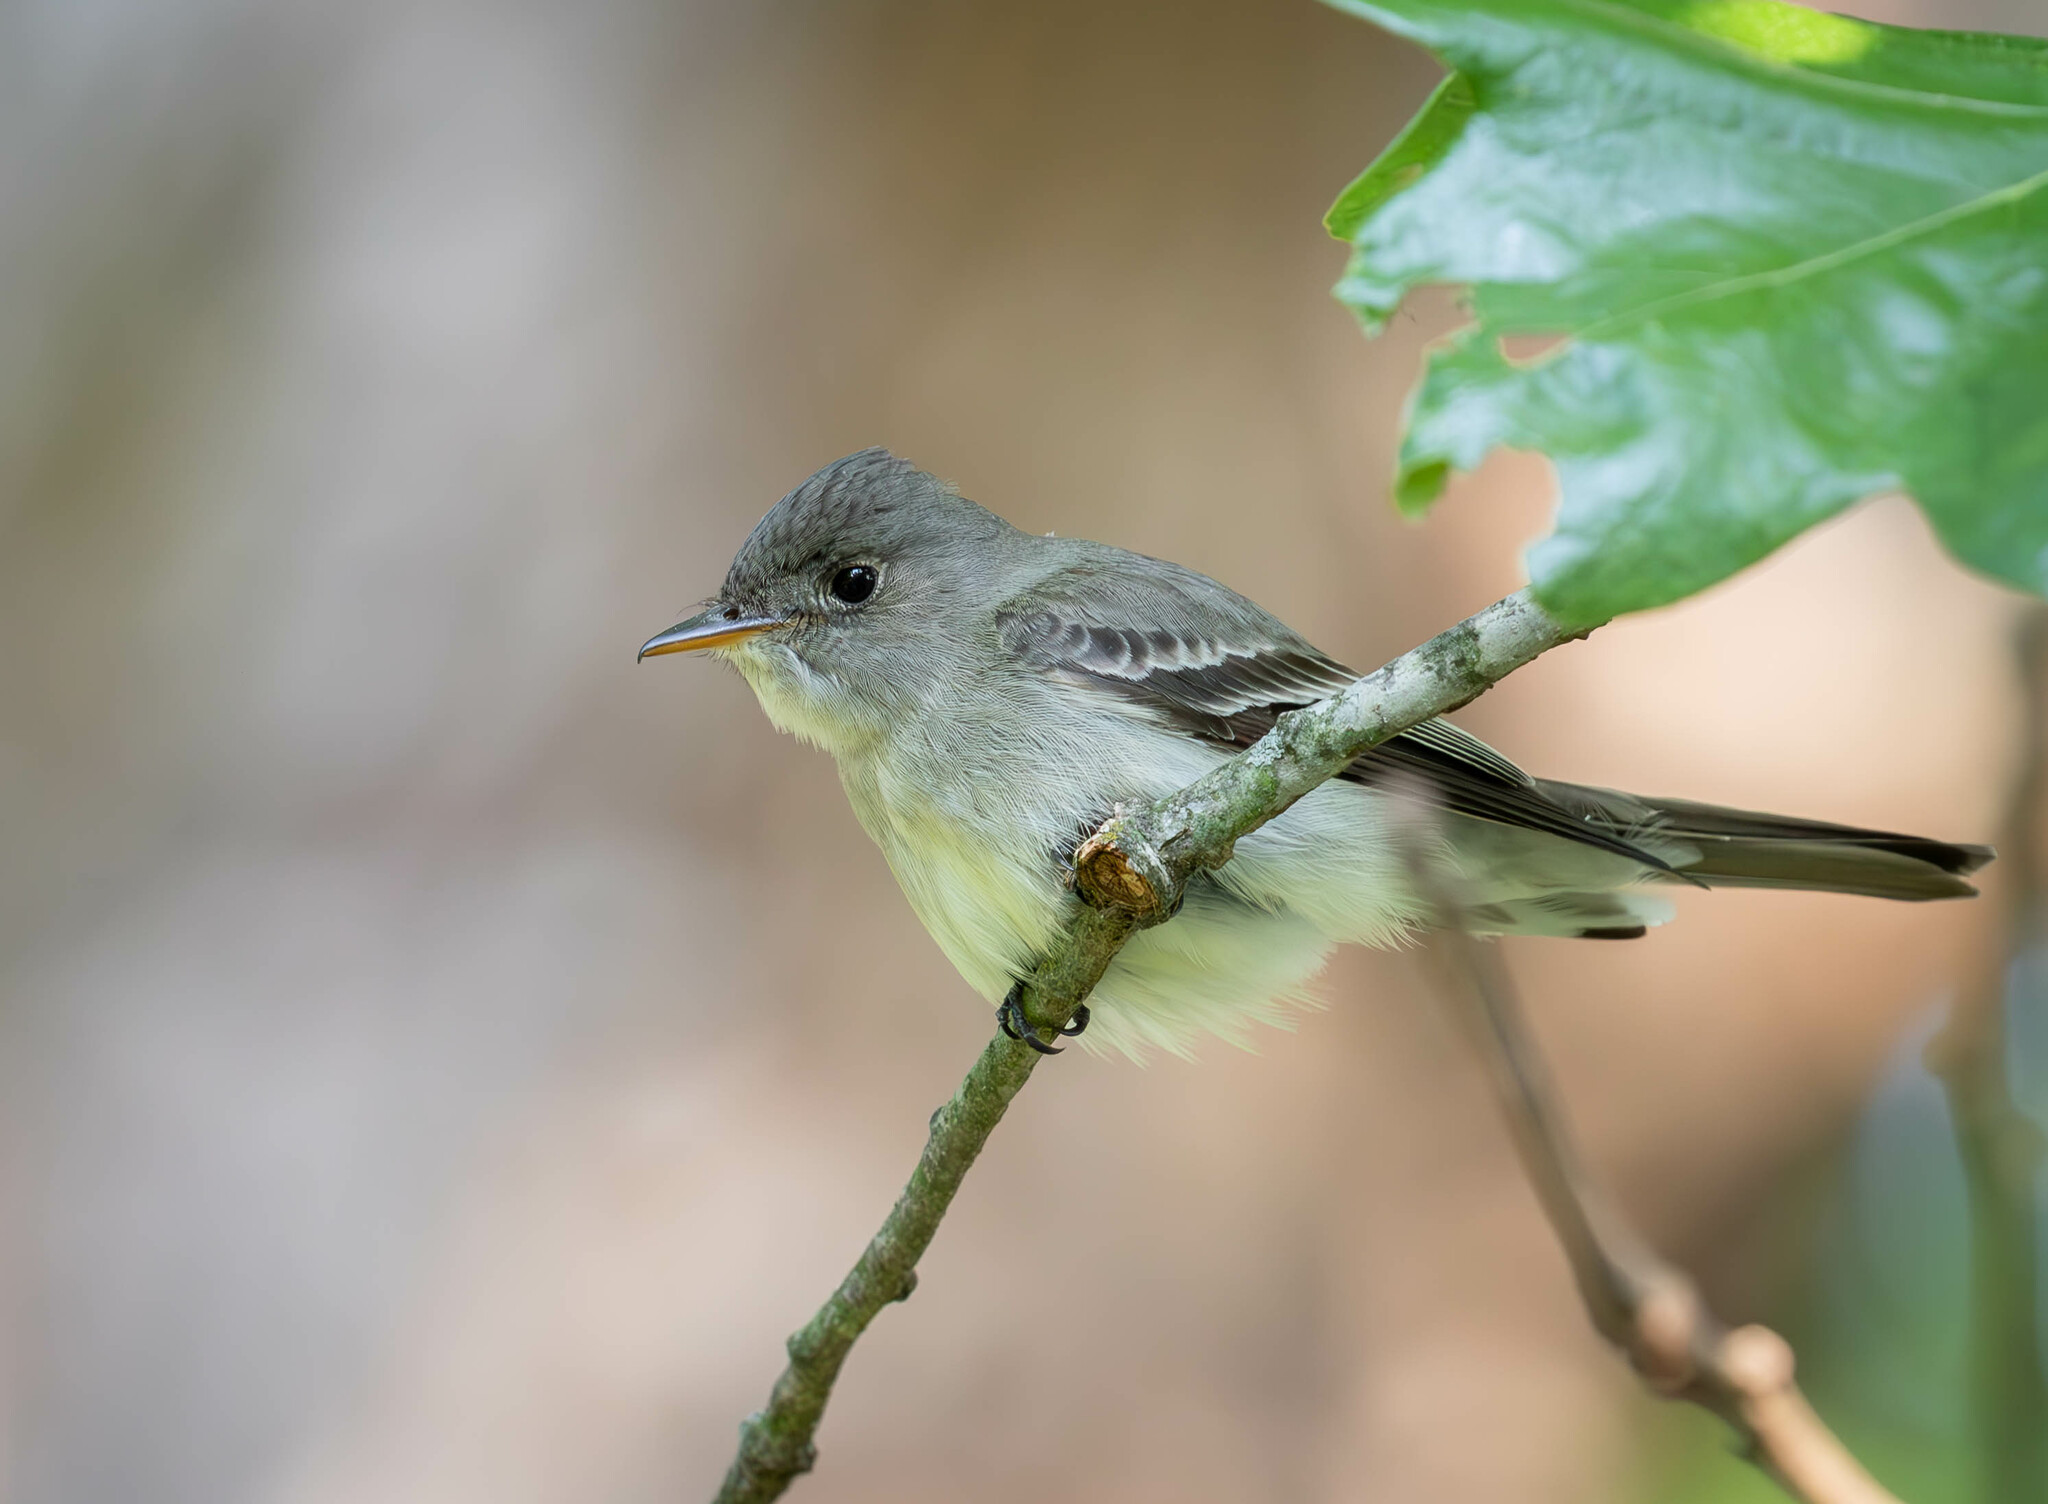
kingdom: Animalia
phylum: Chordata
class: Aves
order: Passeriformes
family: Tyrannidae
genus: Contopus
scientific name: Contopus virens
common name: Eastern wood-pewee
